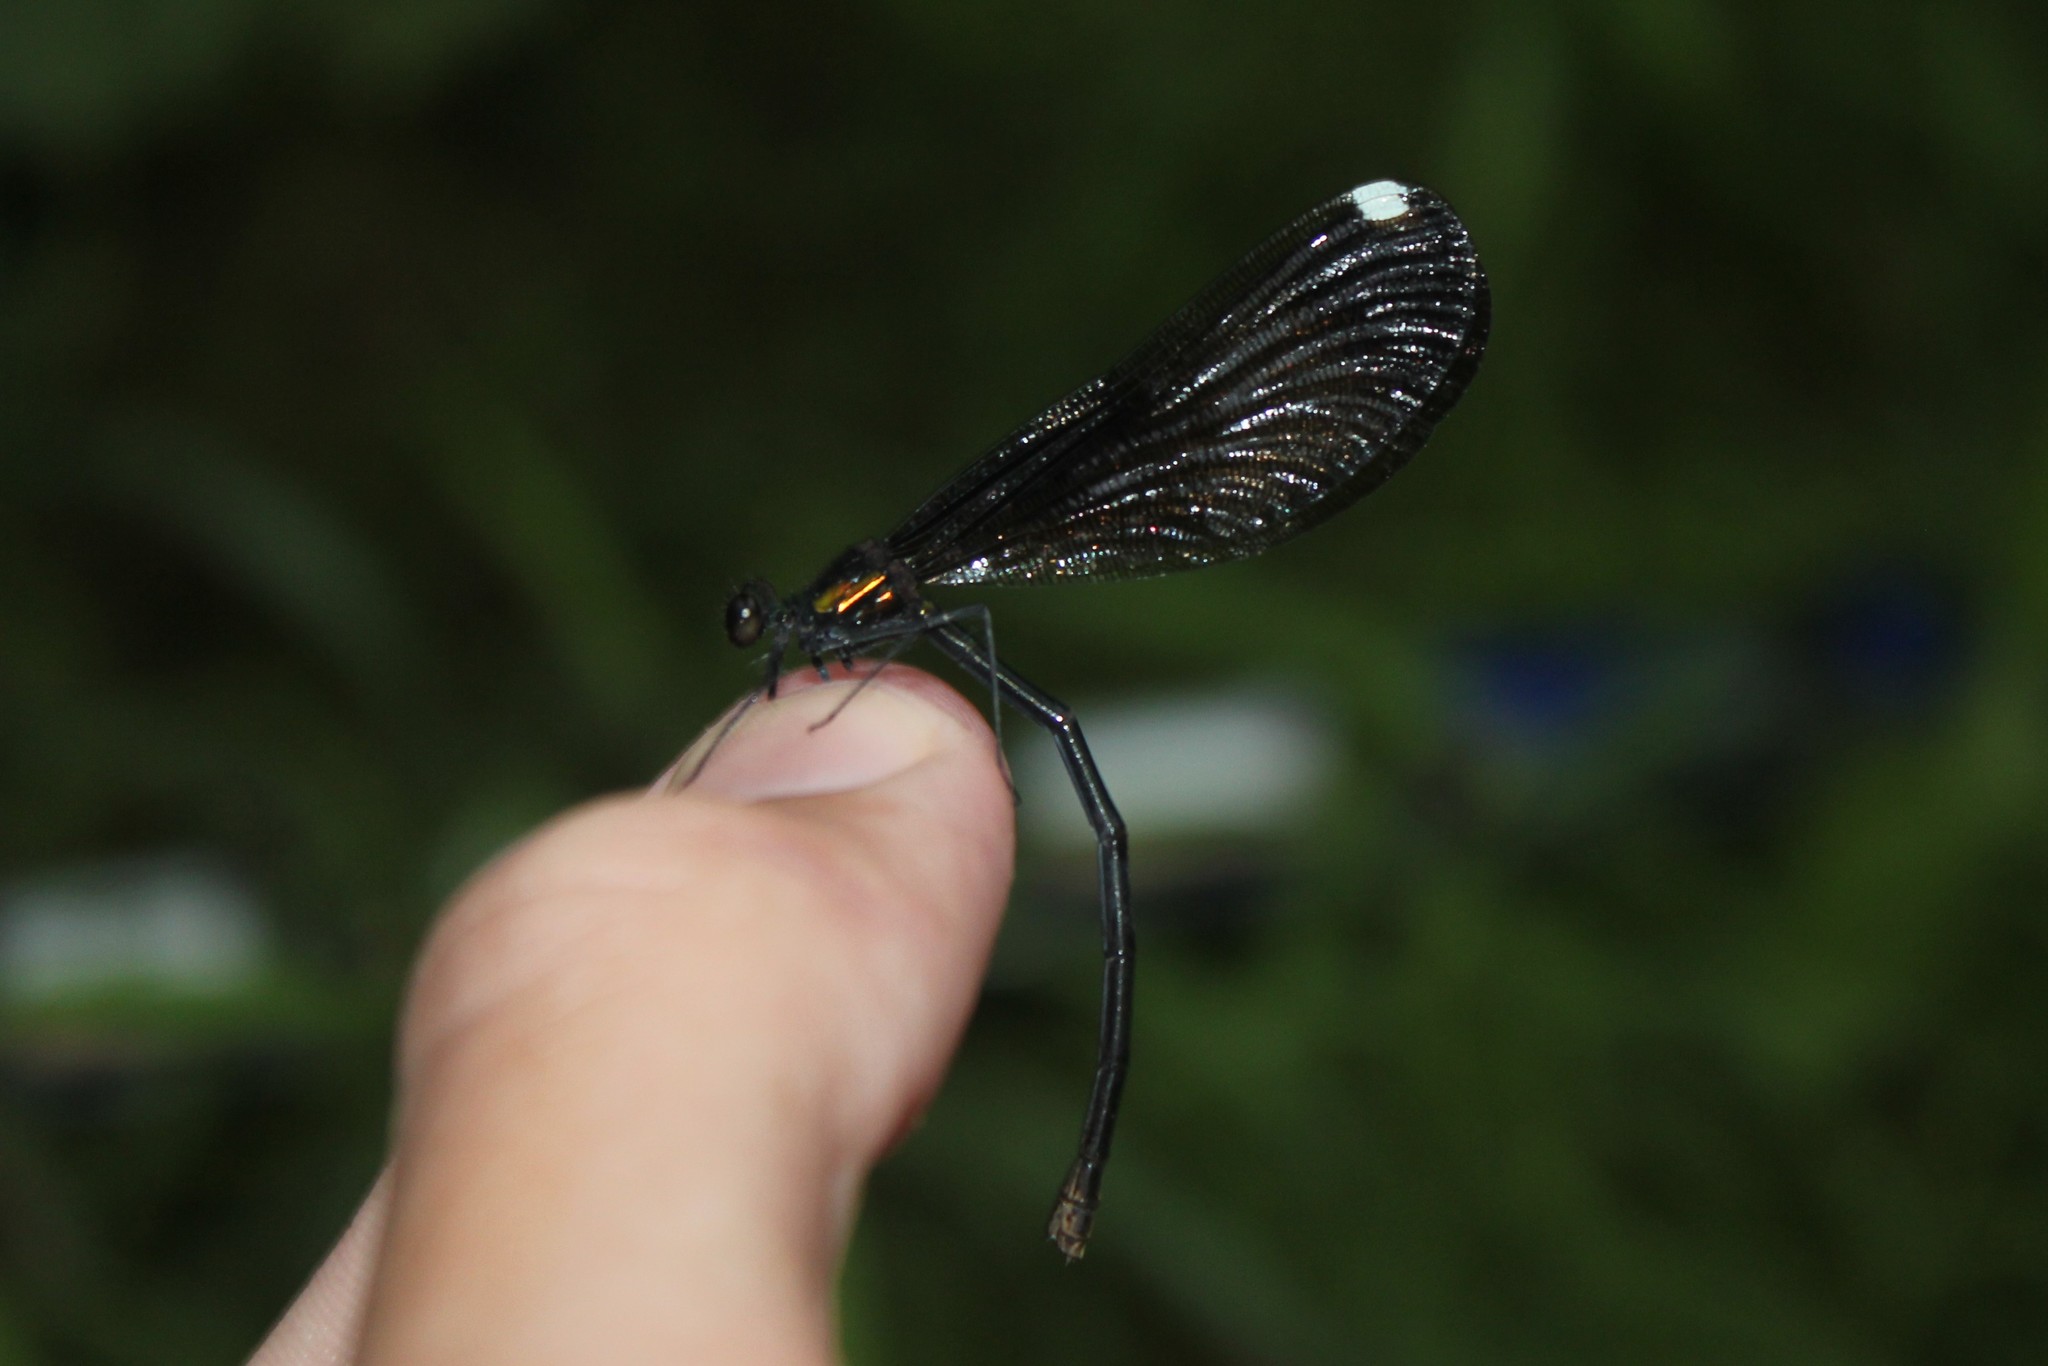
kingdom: Animalia
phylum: Arthropoda
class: Insecta
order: Odonata
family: Calopterygidae
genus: Calopteryx
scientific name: Calopteryx maculata
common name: Ebony jewelwing
